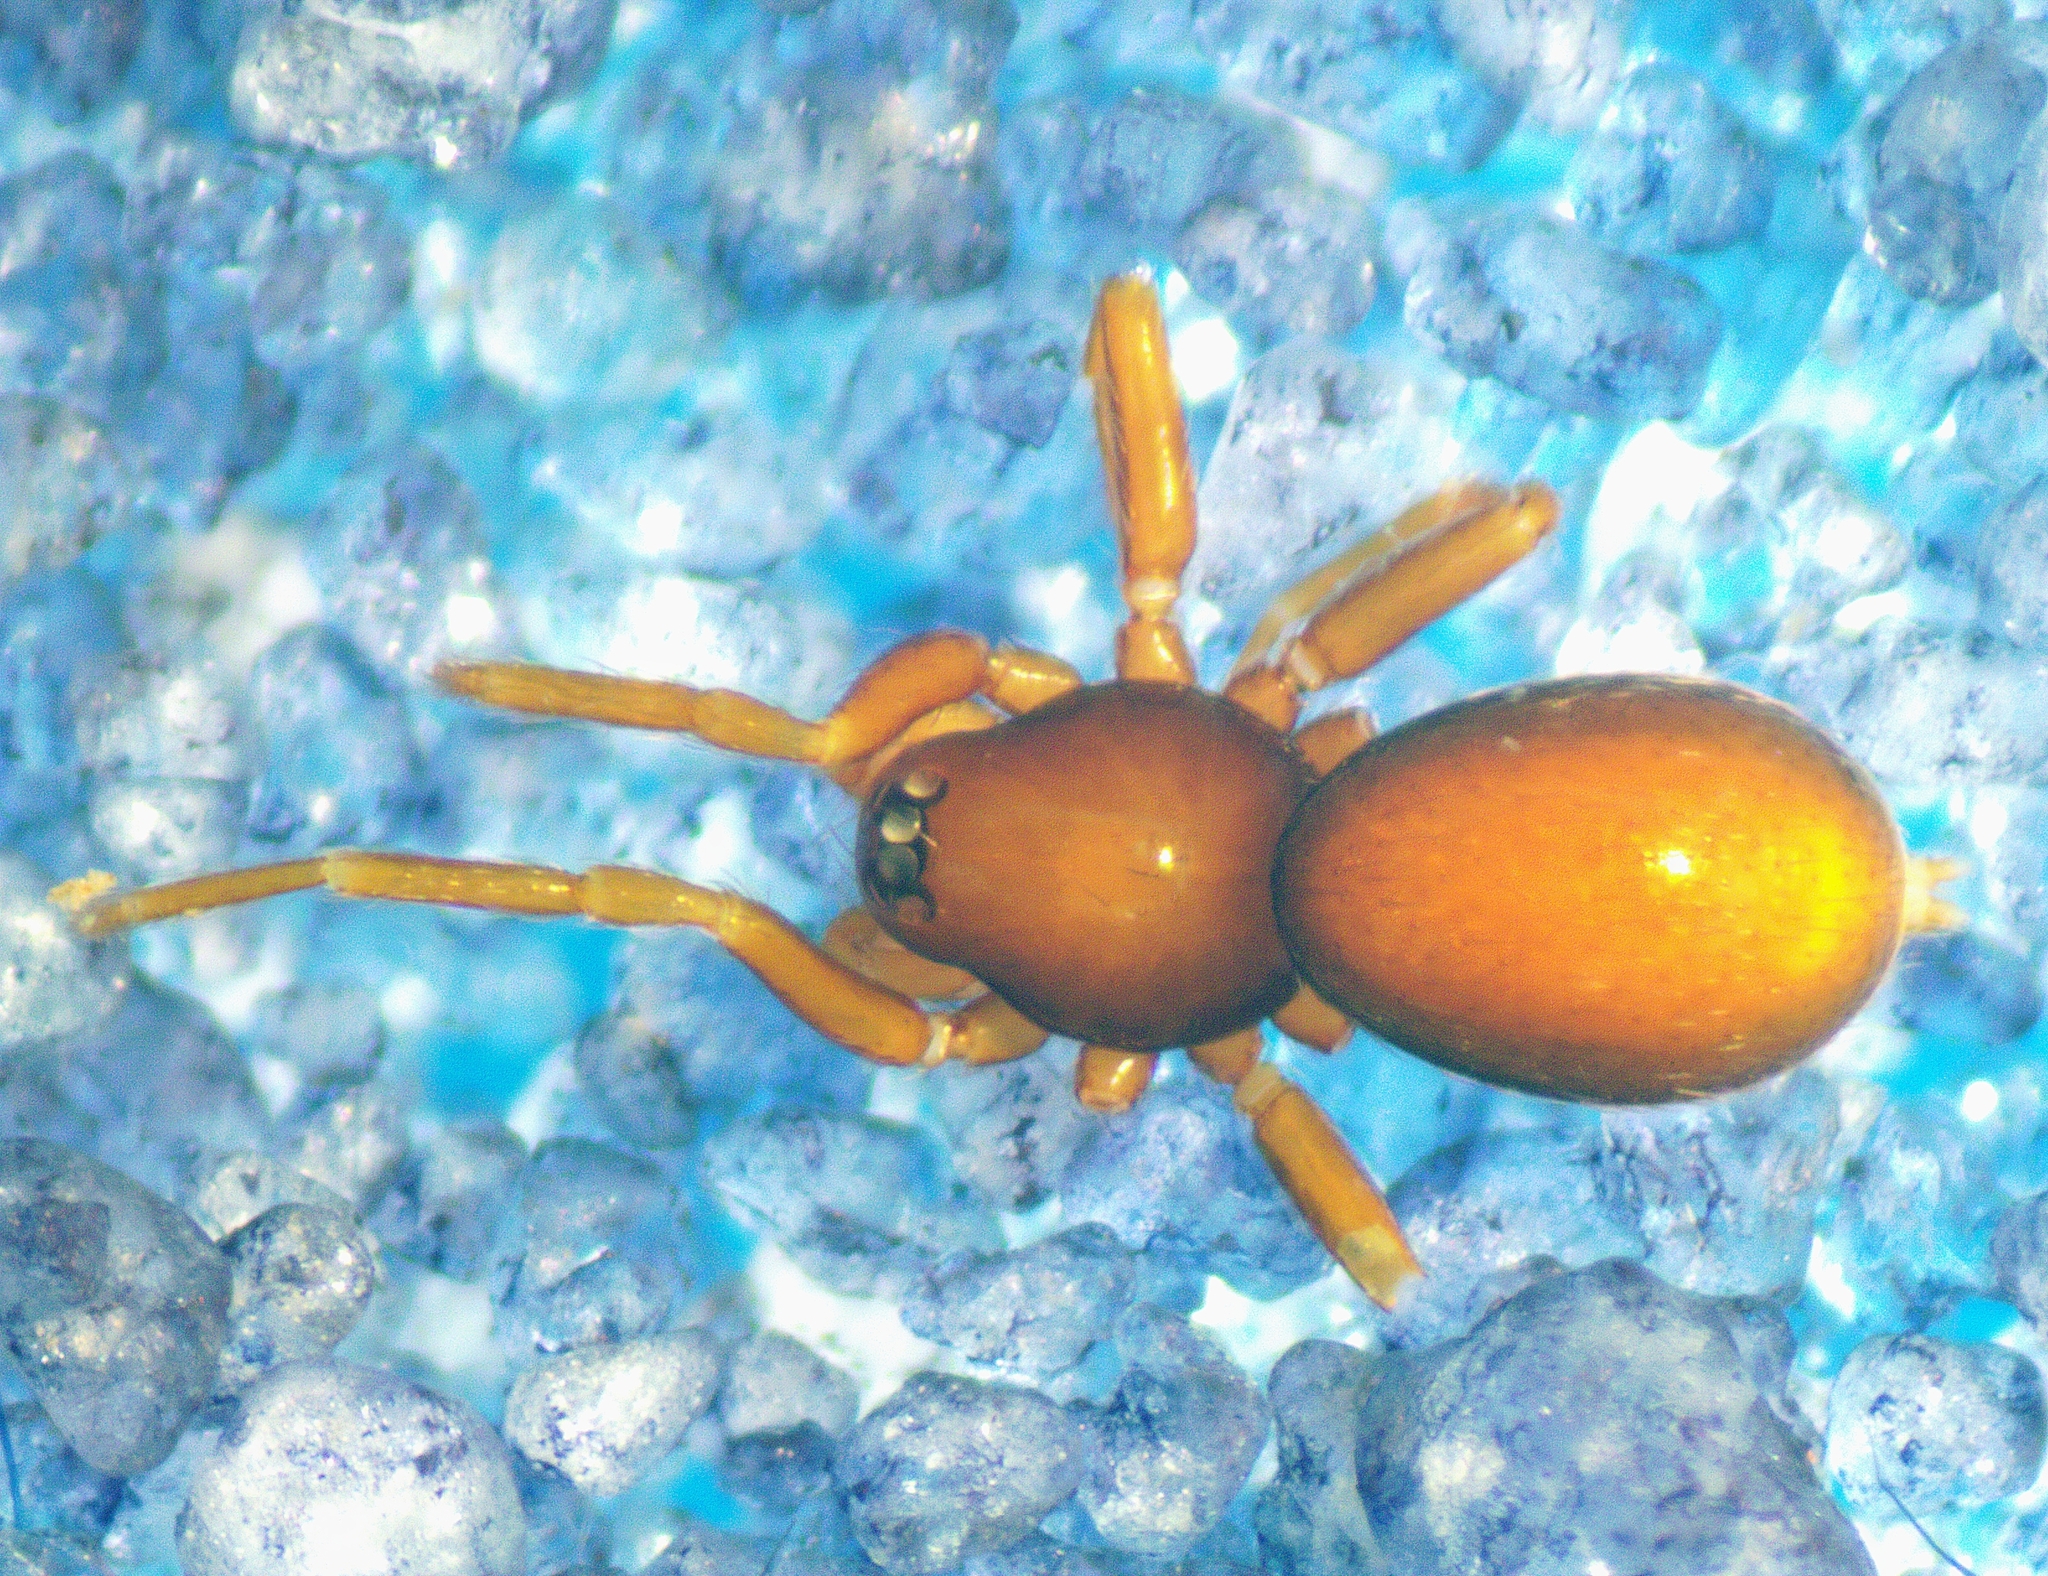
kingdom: Animalia
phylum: Arthropoda
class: Arachnida
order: Araneae
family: Oonopidae
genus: Pelicinus
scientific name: Pelicinus
